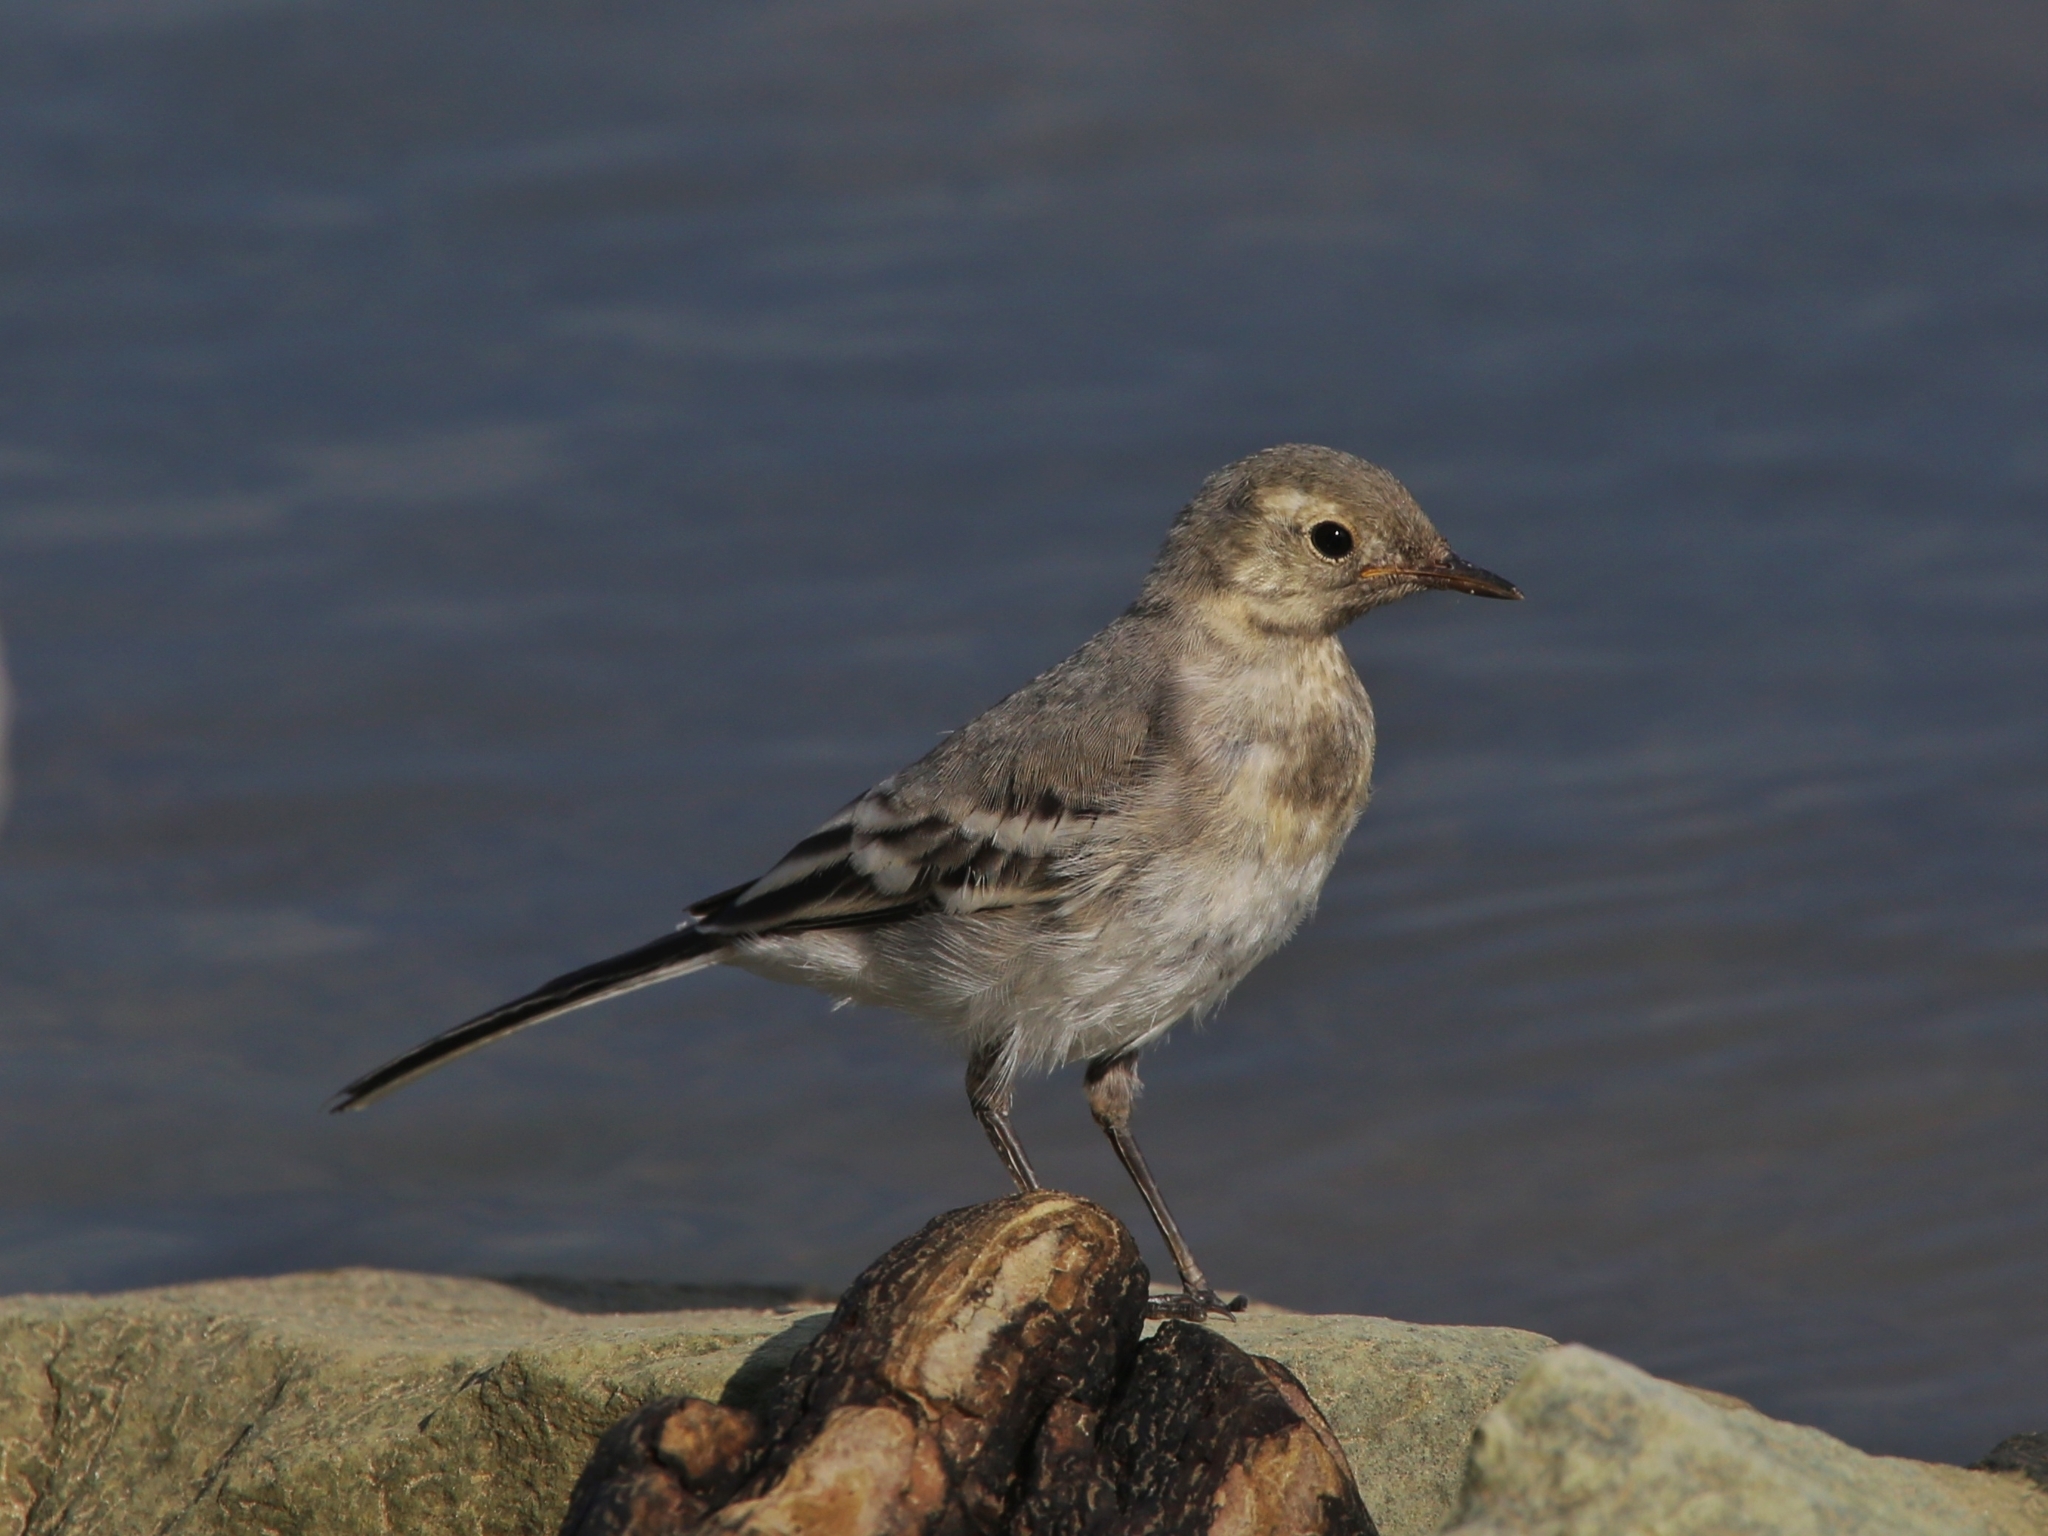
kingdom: Animalia
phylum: Chordata
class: Aves
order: Passeriformes
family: Motacillidae
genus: Motacilla
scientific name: Motacilla alba
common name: White wagtail
